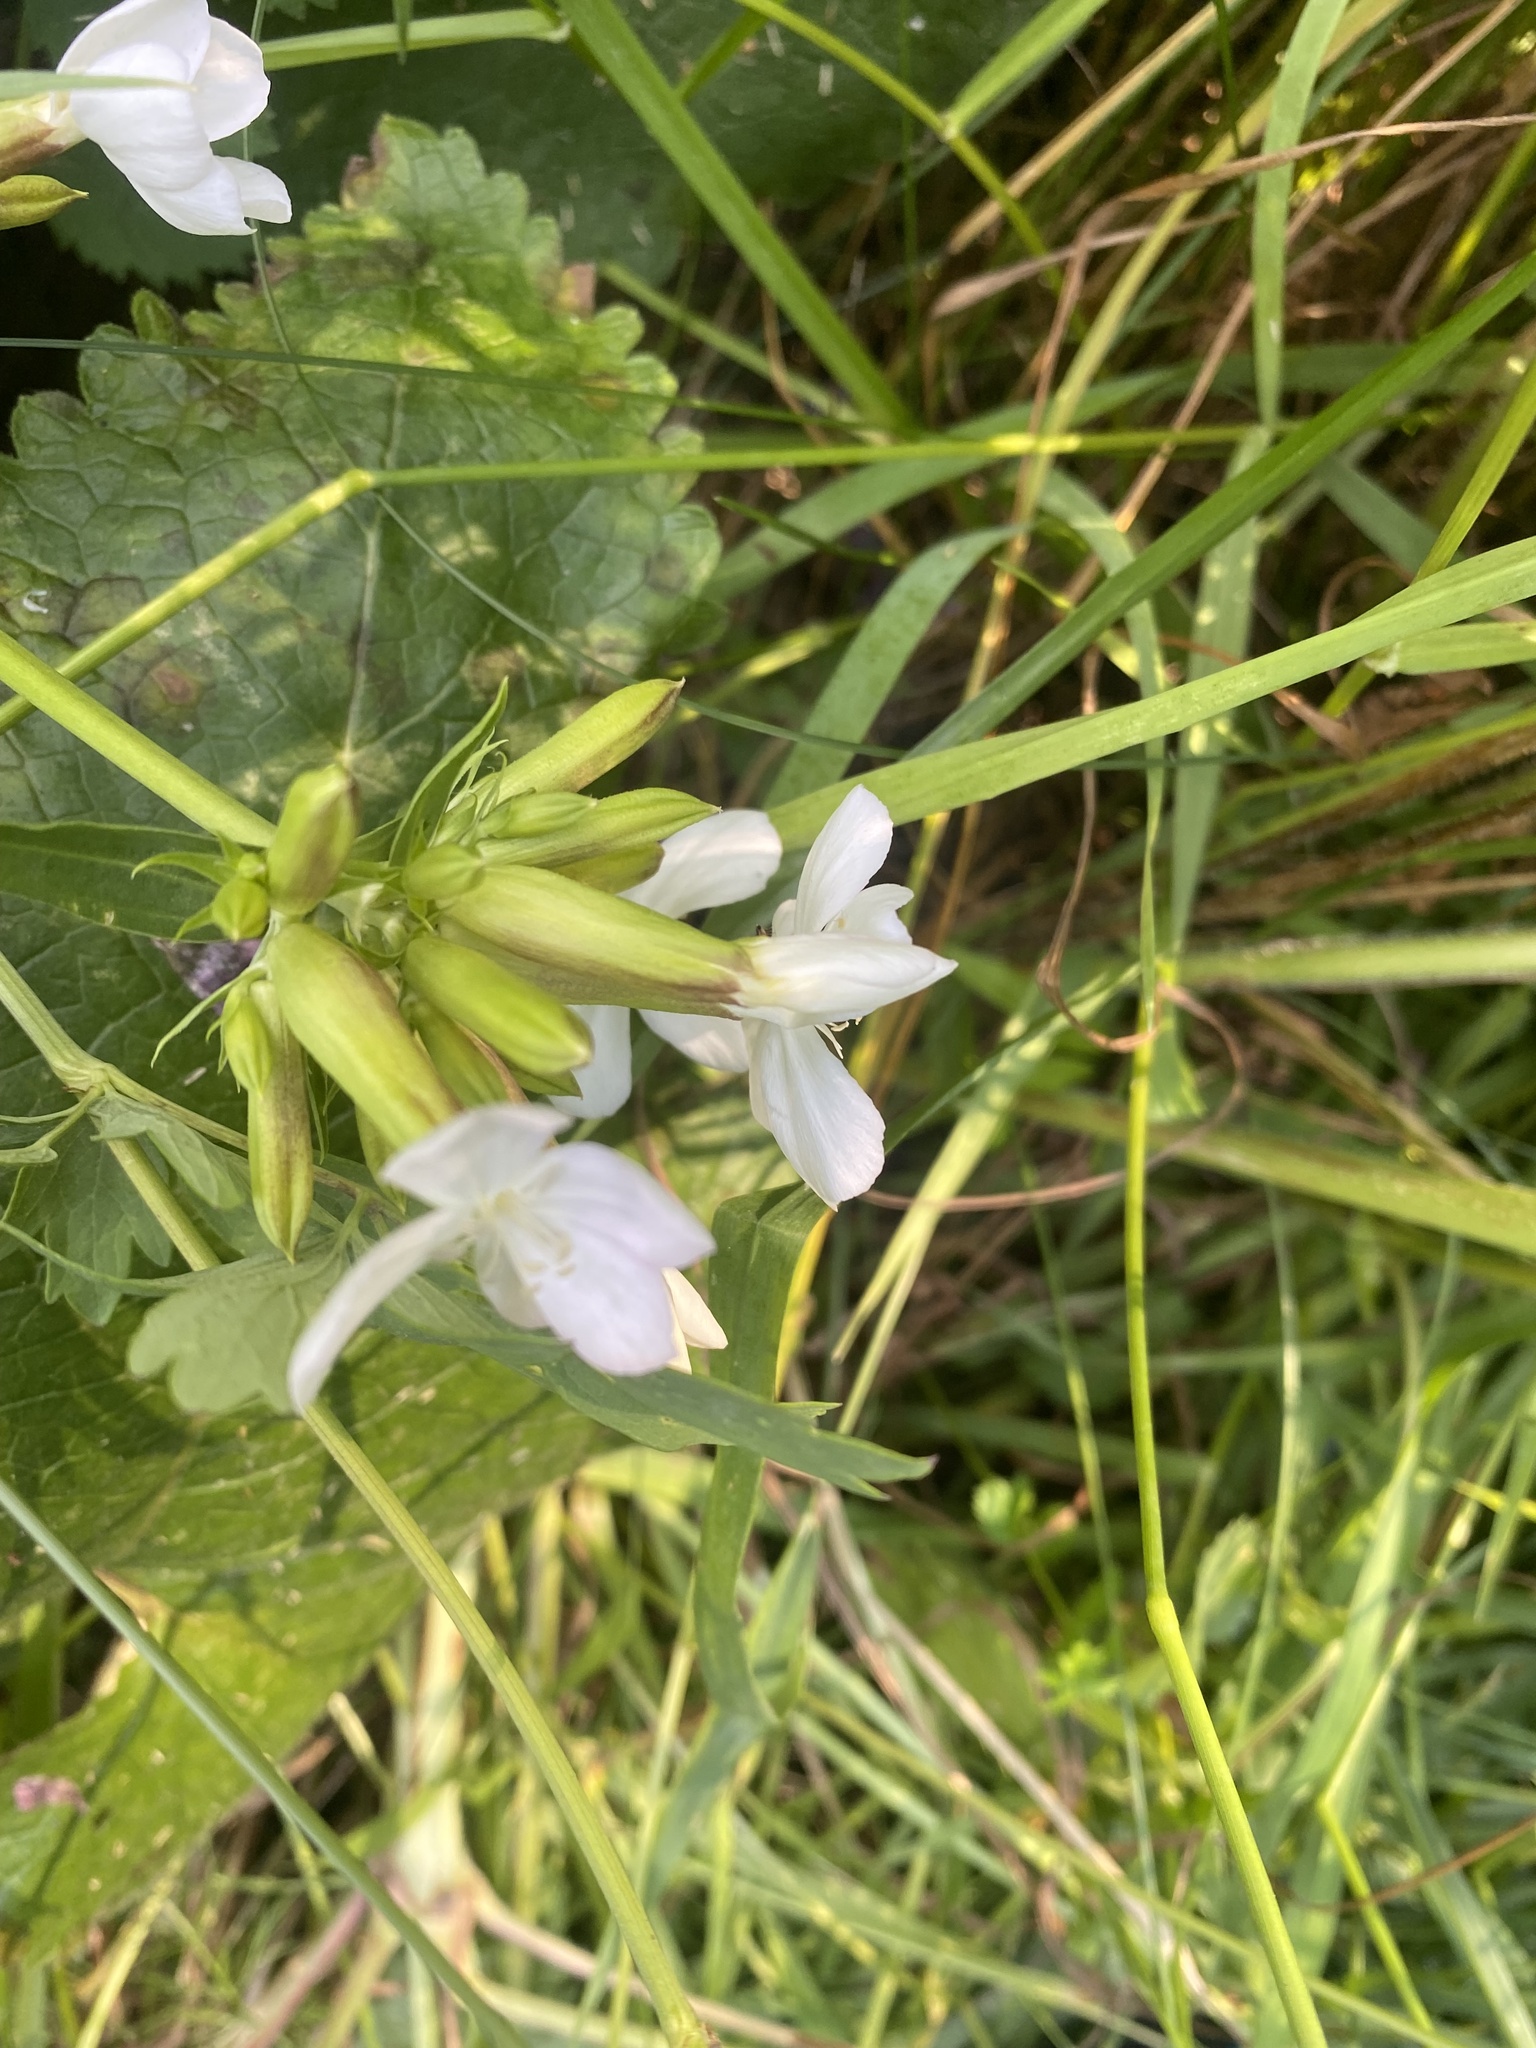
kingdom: Plantae
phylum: Tracheophyta
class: Magnoliopsida
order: Caryophyllales
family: Caryophyllaceae
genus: Saponaria
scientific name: Saponaria officinalis
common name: Soapwort
